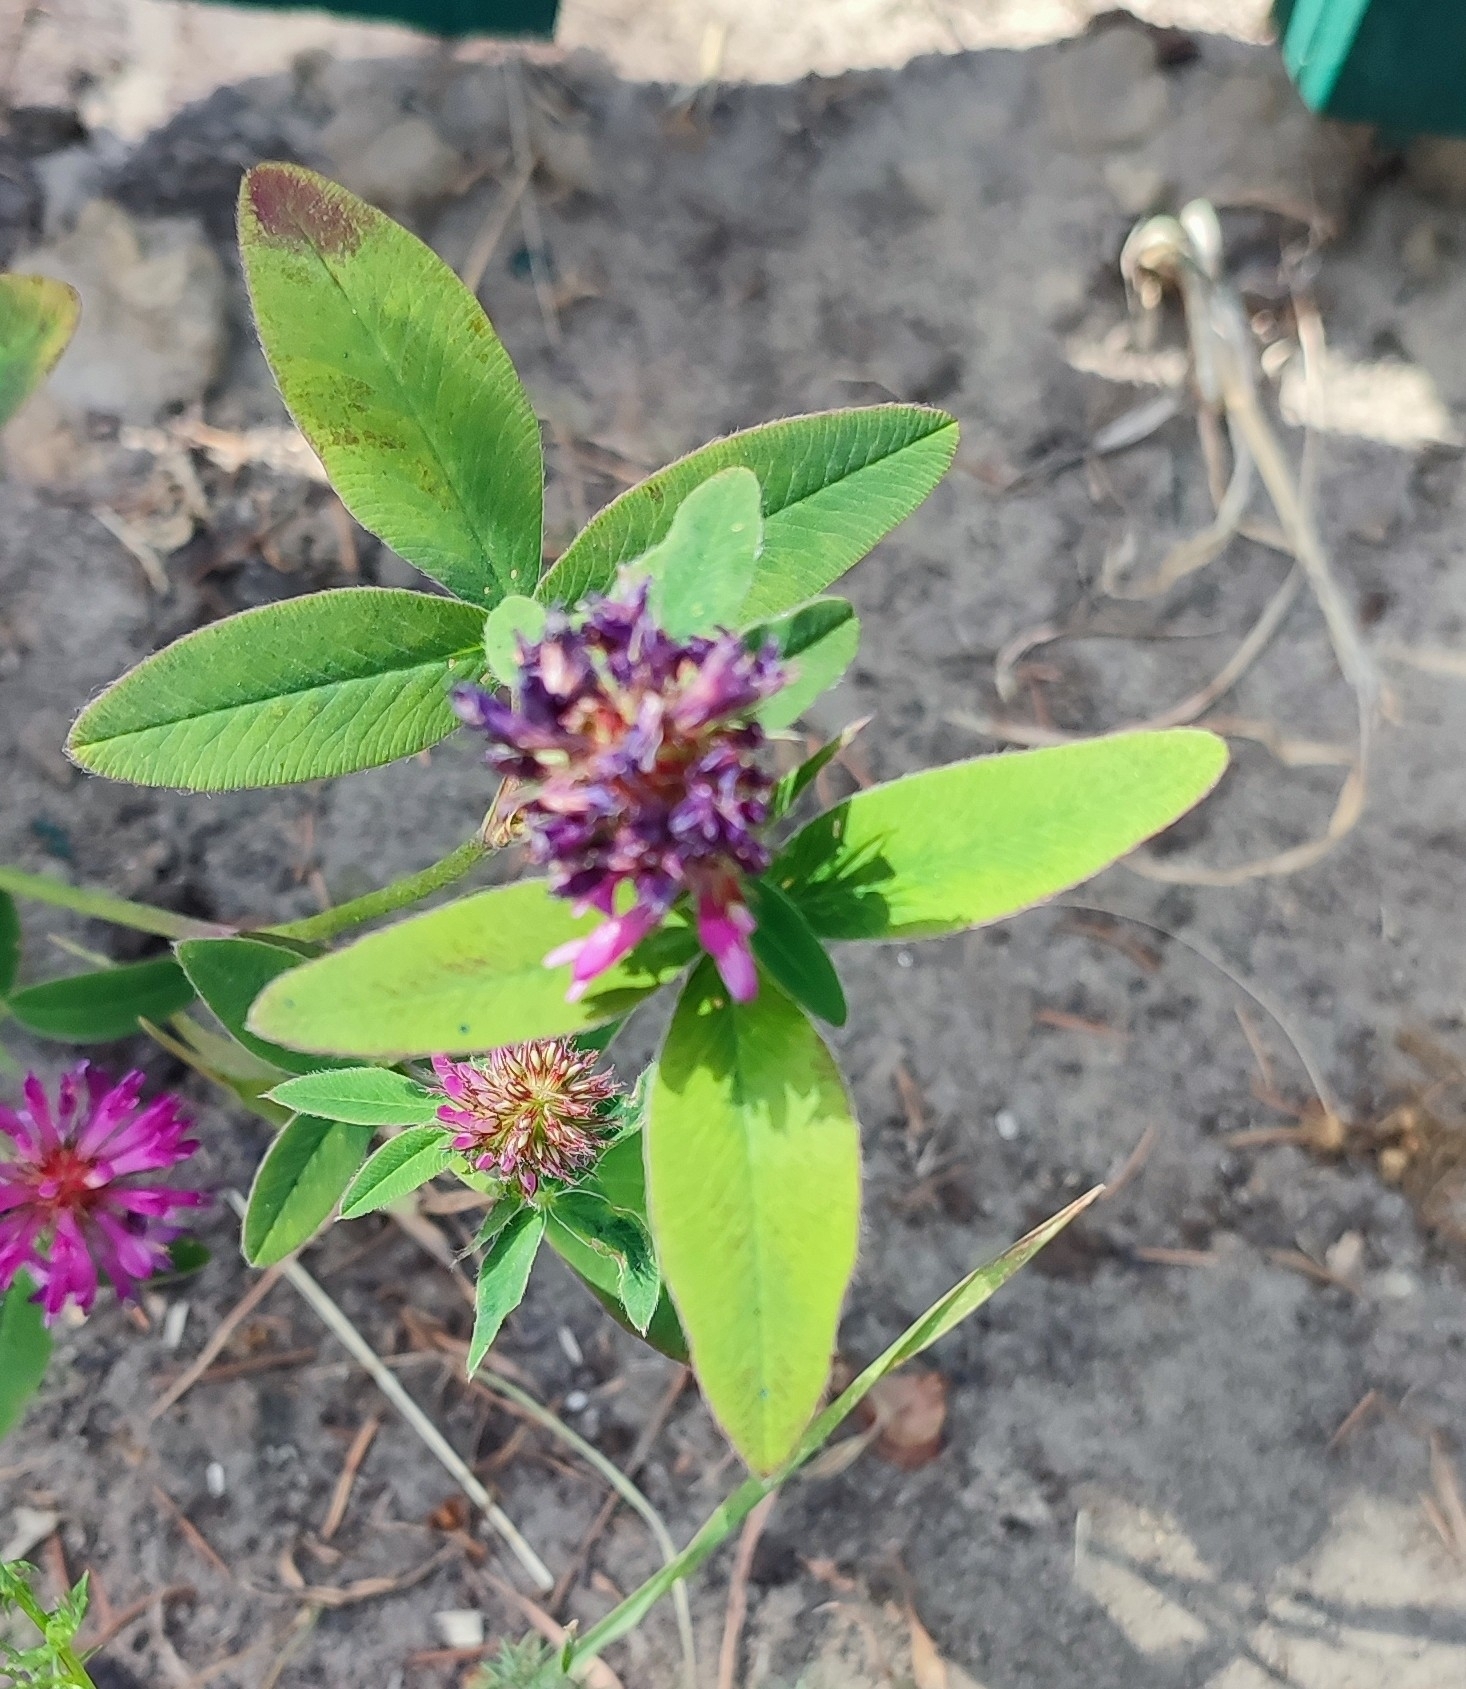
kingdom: Plantae
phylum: Tracheophyta
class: Magnoliopsida
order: Fabales
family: Fabaceae
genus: Trifolium
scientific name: Trifolium medium
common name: Zigzag clover
